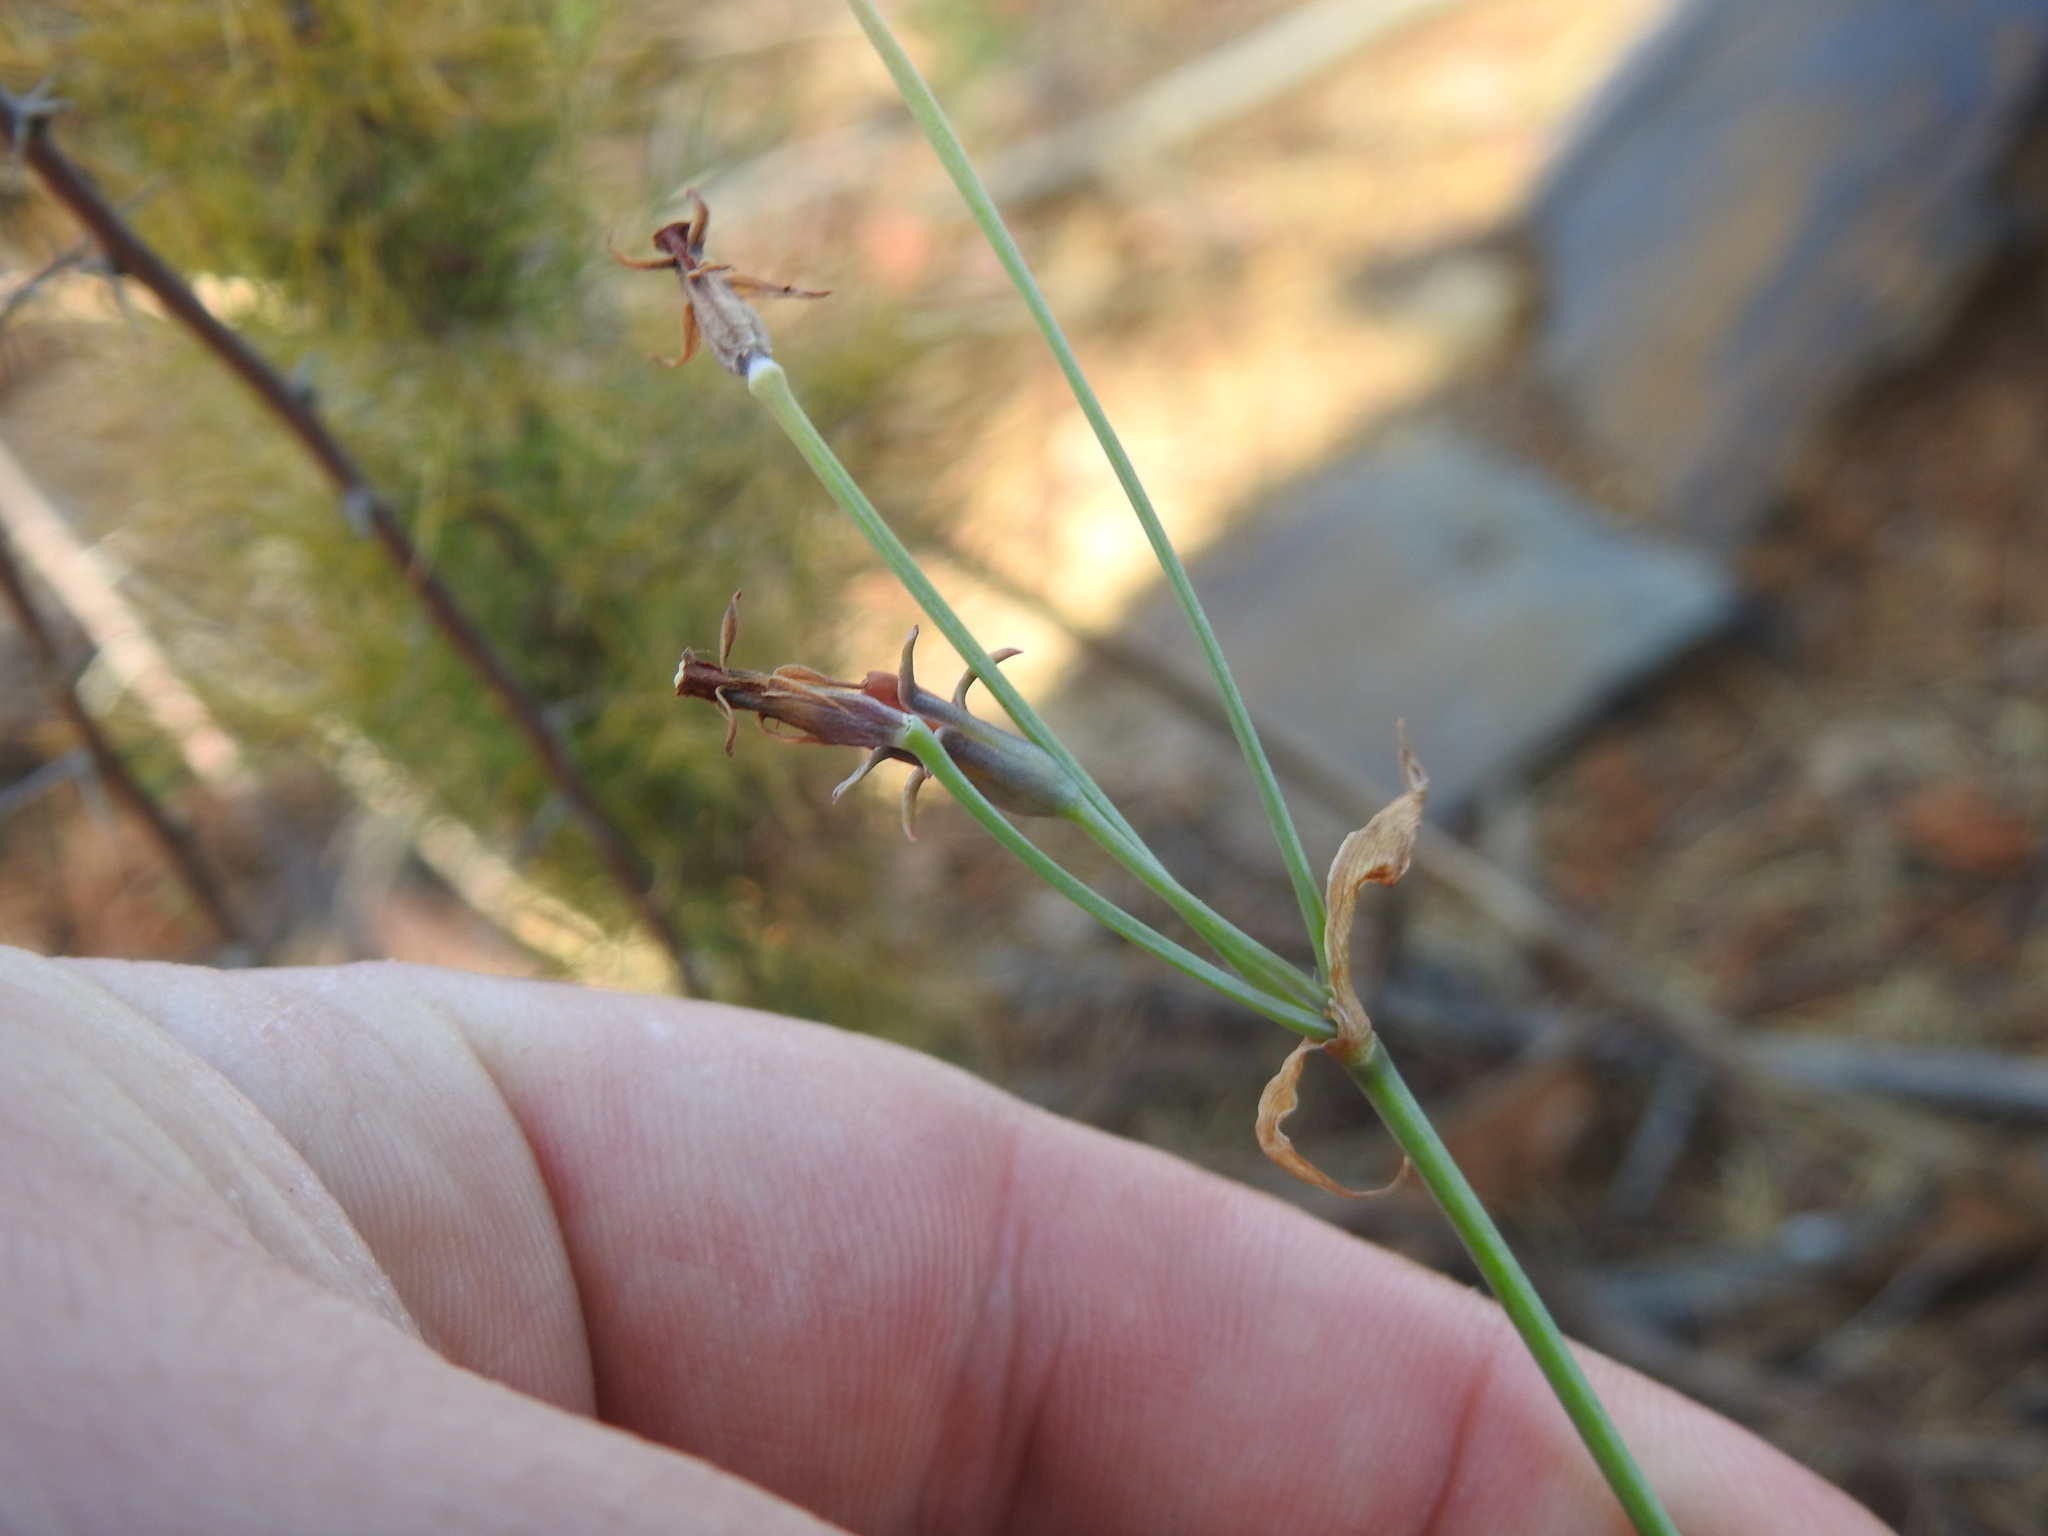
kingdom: Plantae
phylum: Tracheophyta
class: Liliopsida
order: Asparagales
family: Amaryllidaceae
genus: Tulbaghia
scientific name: Tulbaghia acutiloba
